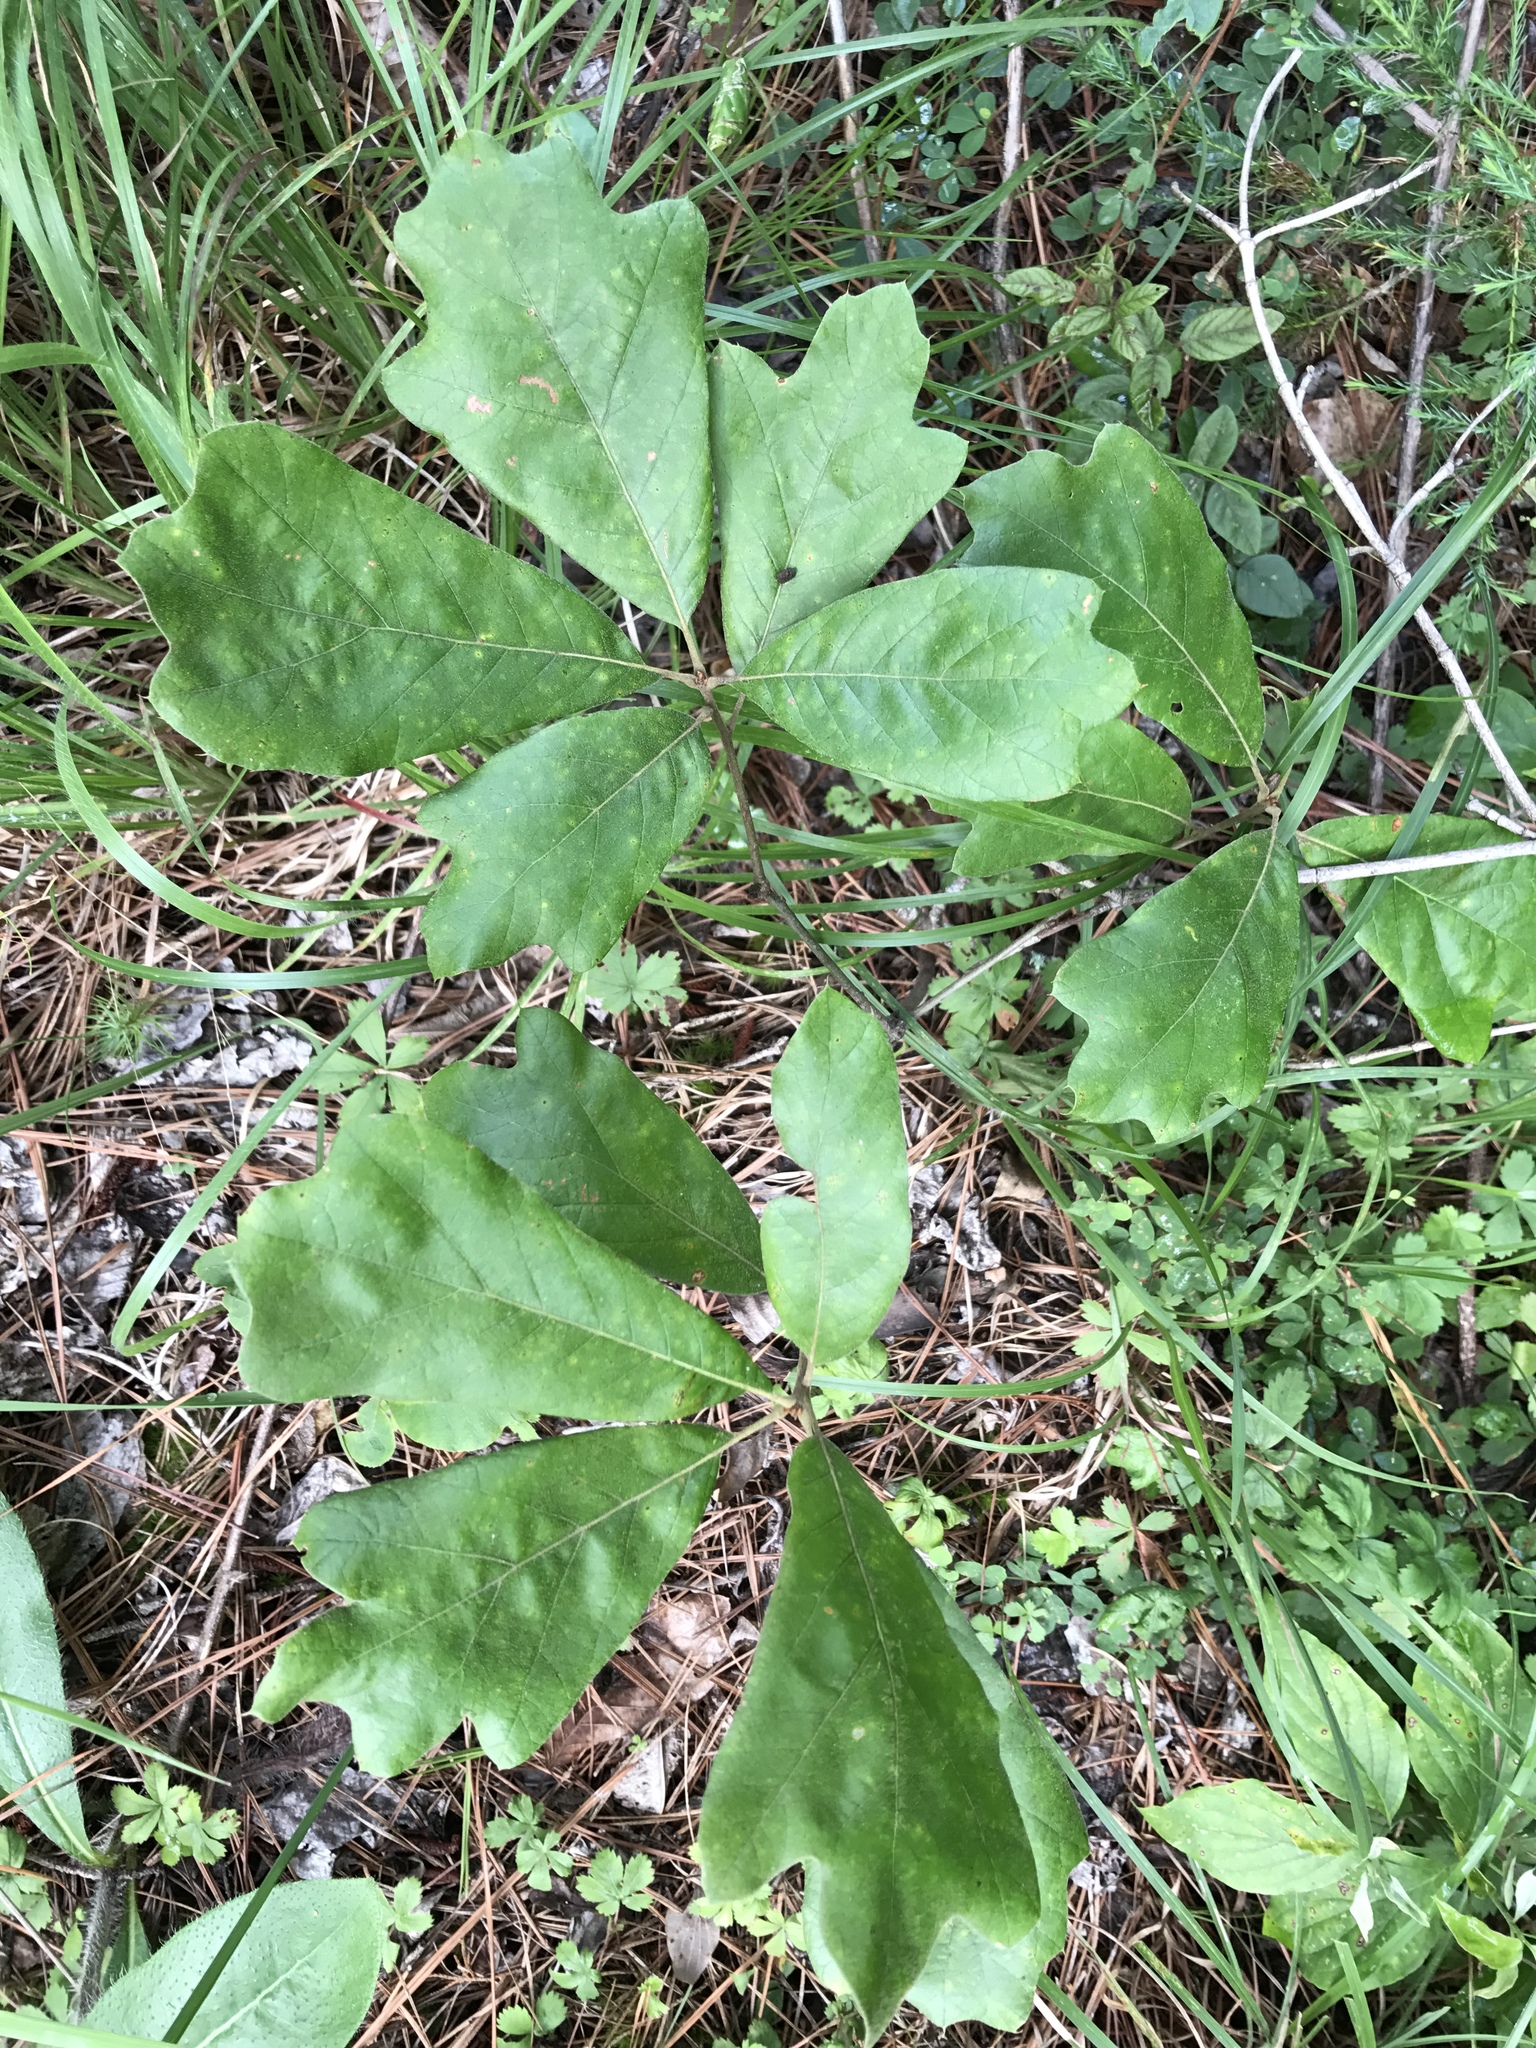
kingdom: Plantae
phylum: Tracheophyta
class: Magnoliopsida
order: Fagales
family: Fagaceae
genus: Quercus
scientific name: Quercus falcata
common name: Southern red oak
